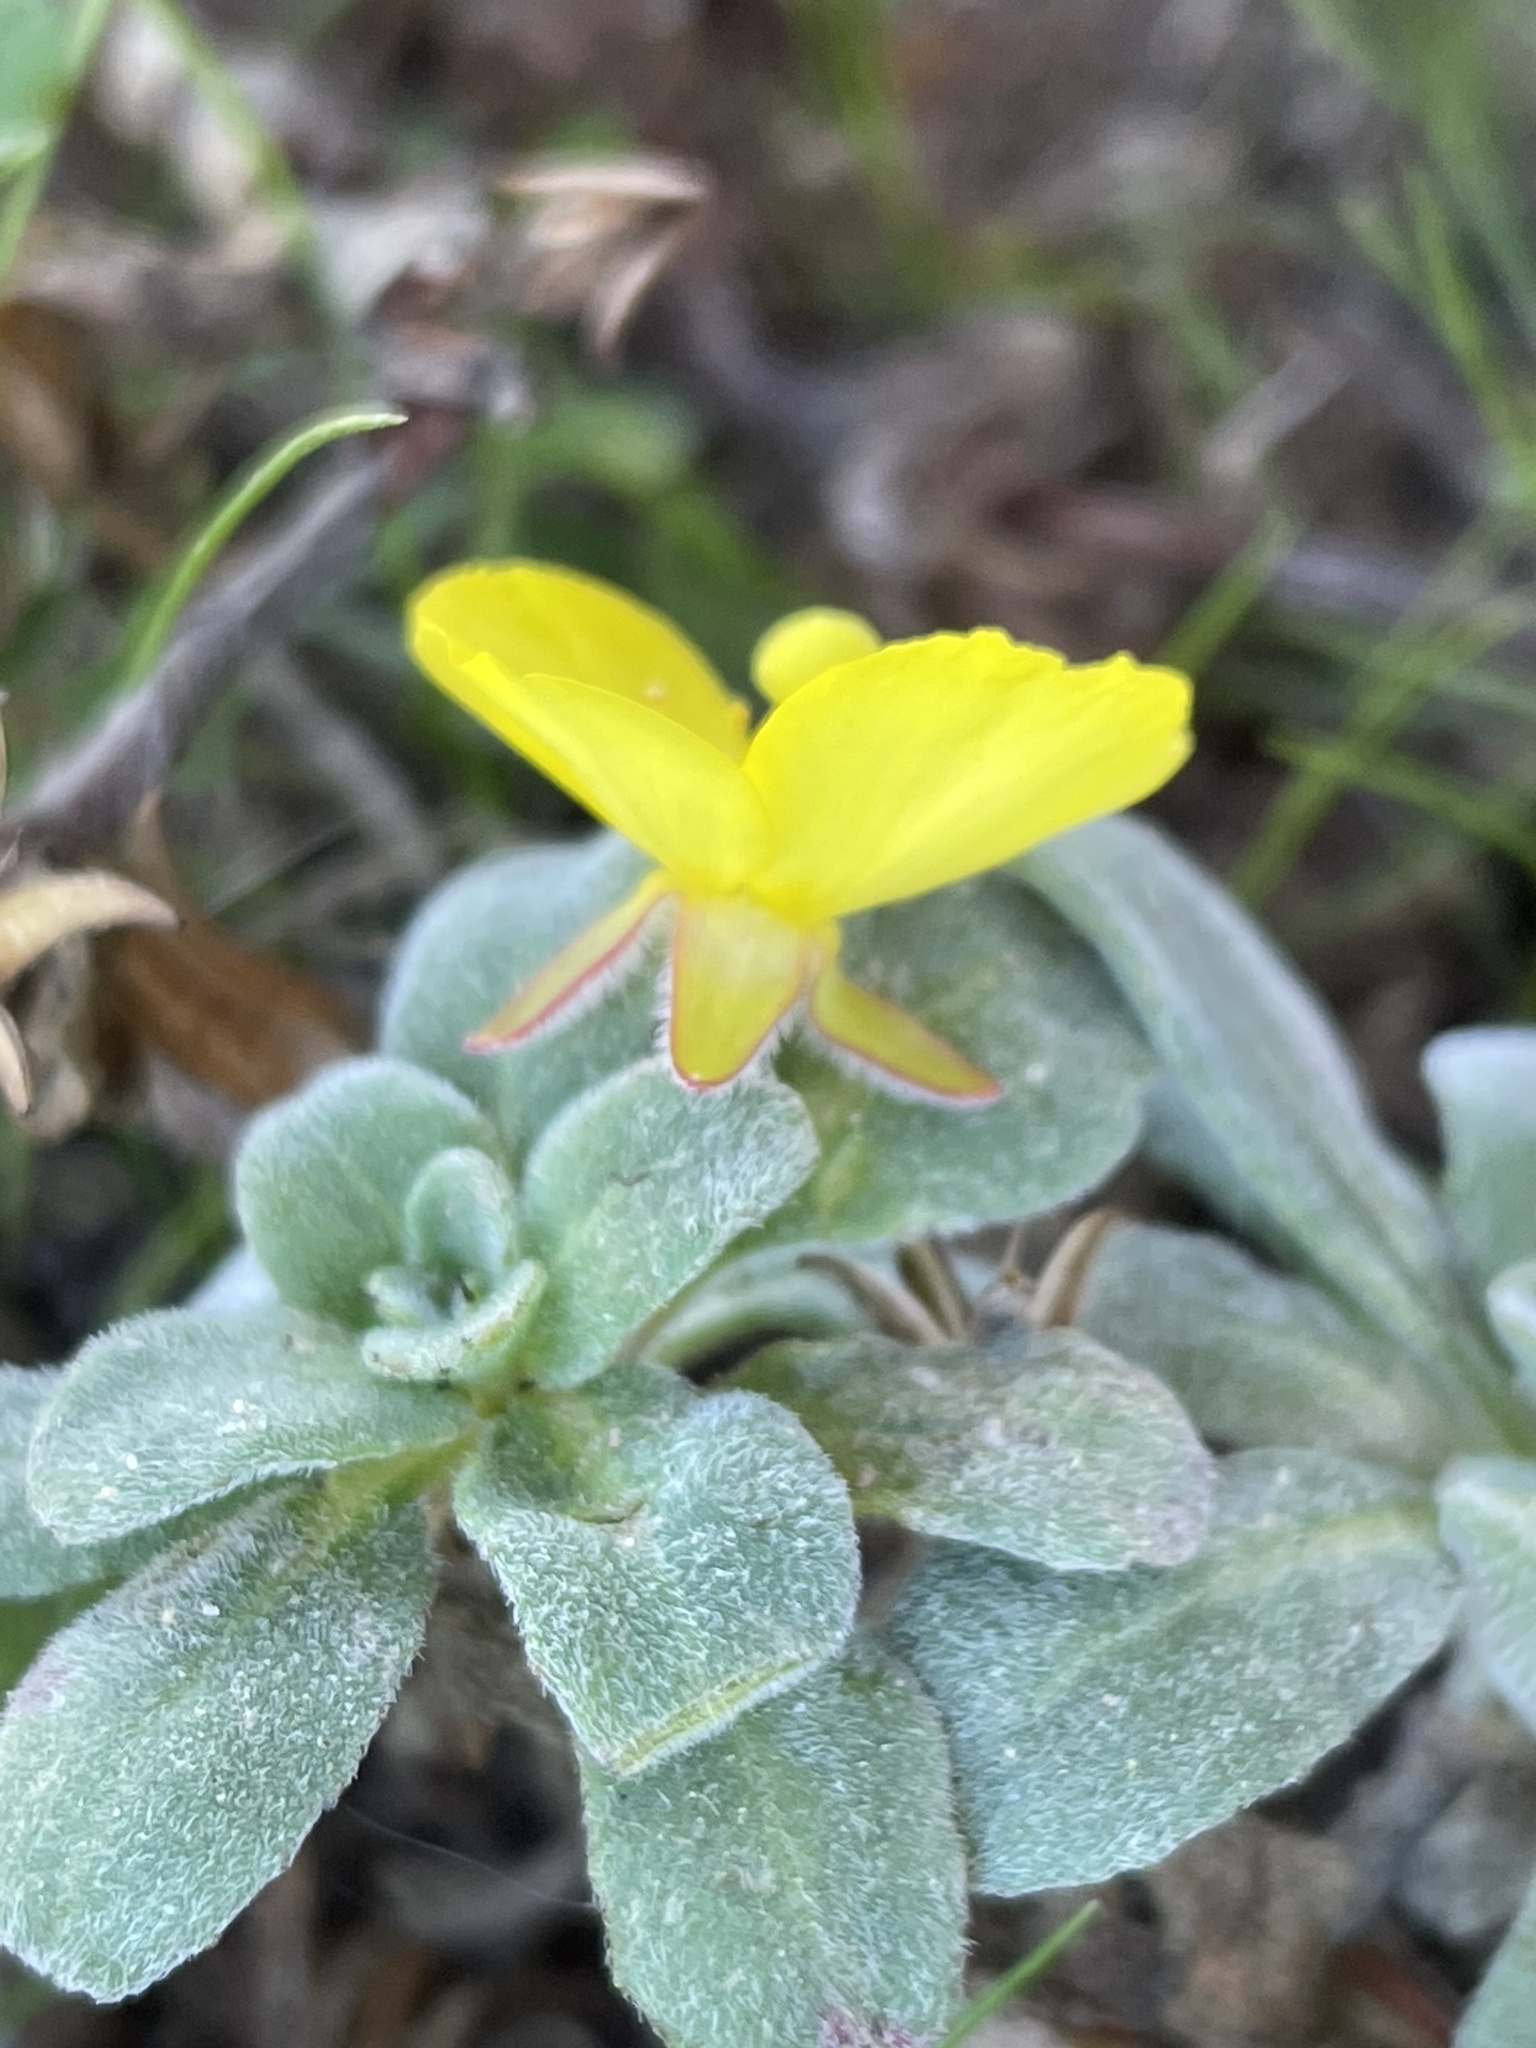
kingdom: Plantae
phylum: Tracheophyta
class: Magnoliopsida
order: Myrtales
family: Onagraceae
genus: Camissoniopsis
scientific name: Camissoniopsis cheiranthifolia
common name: Beach suncup
